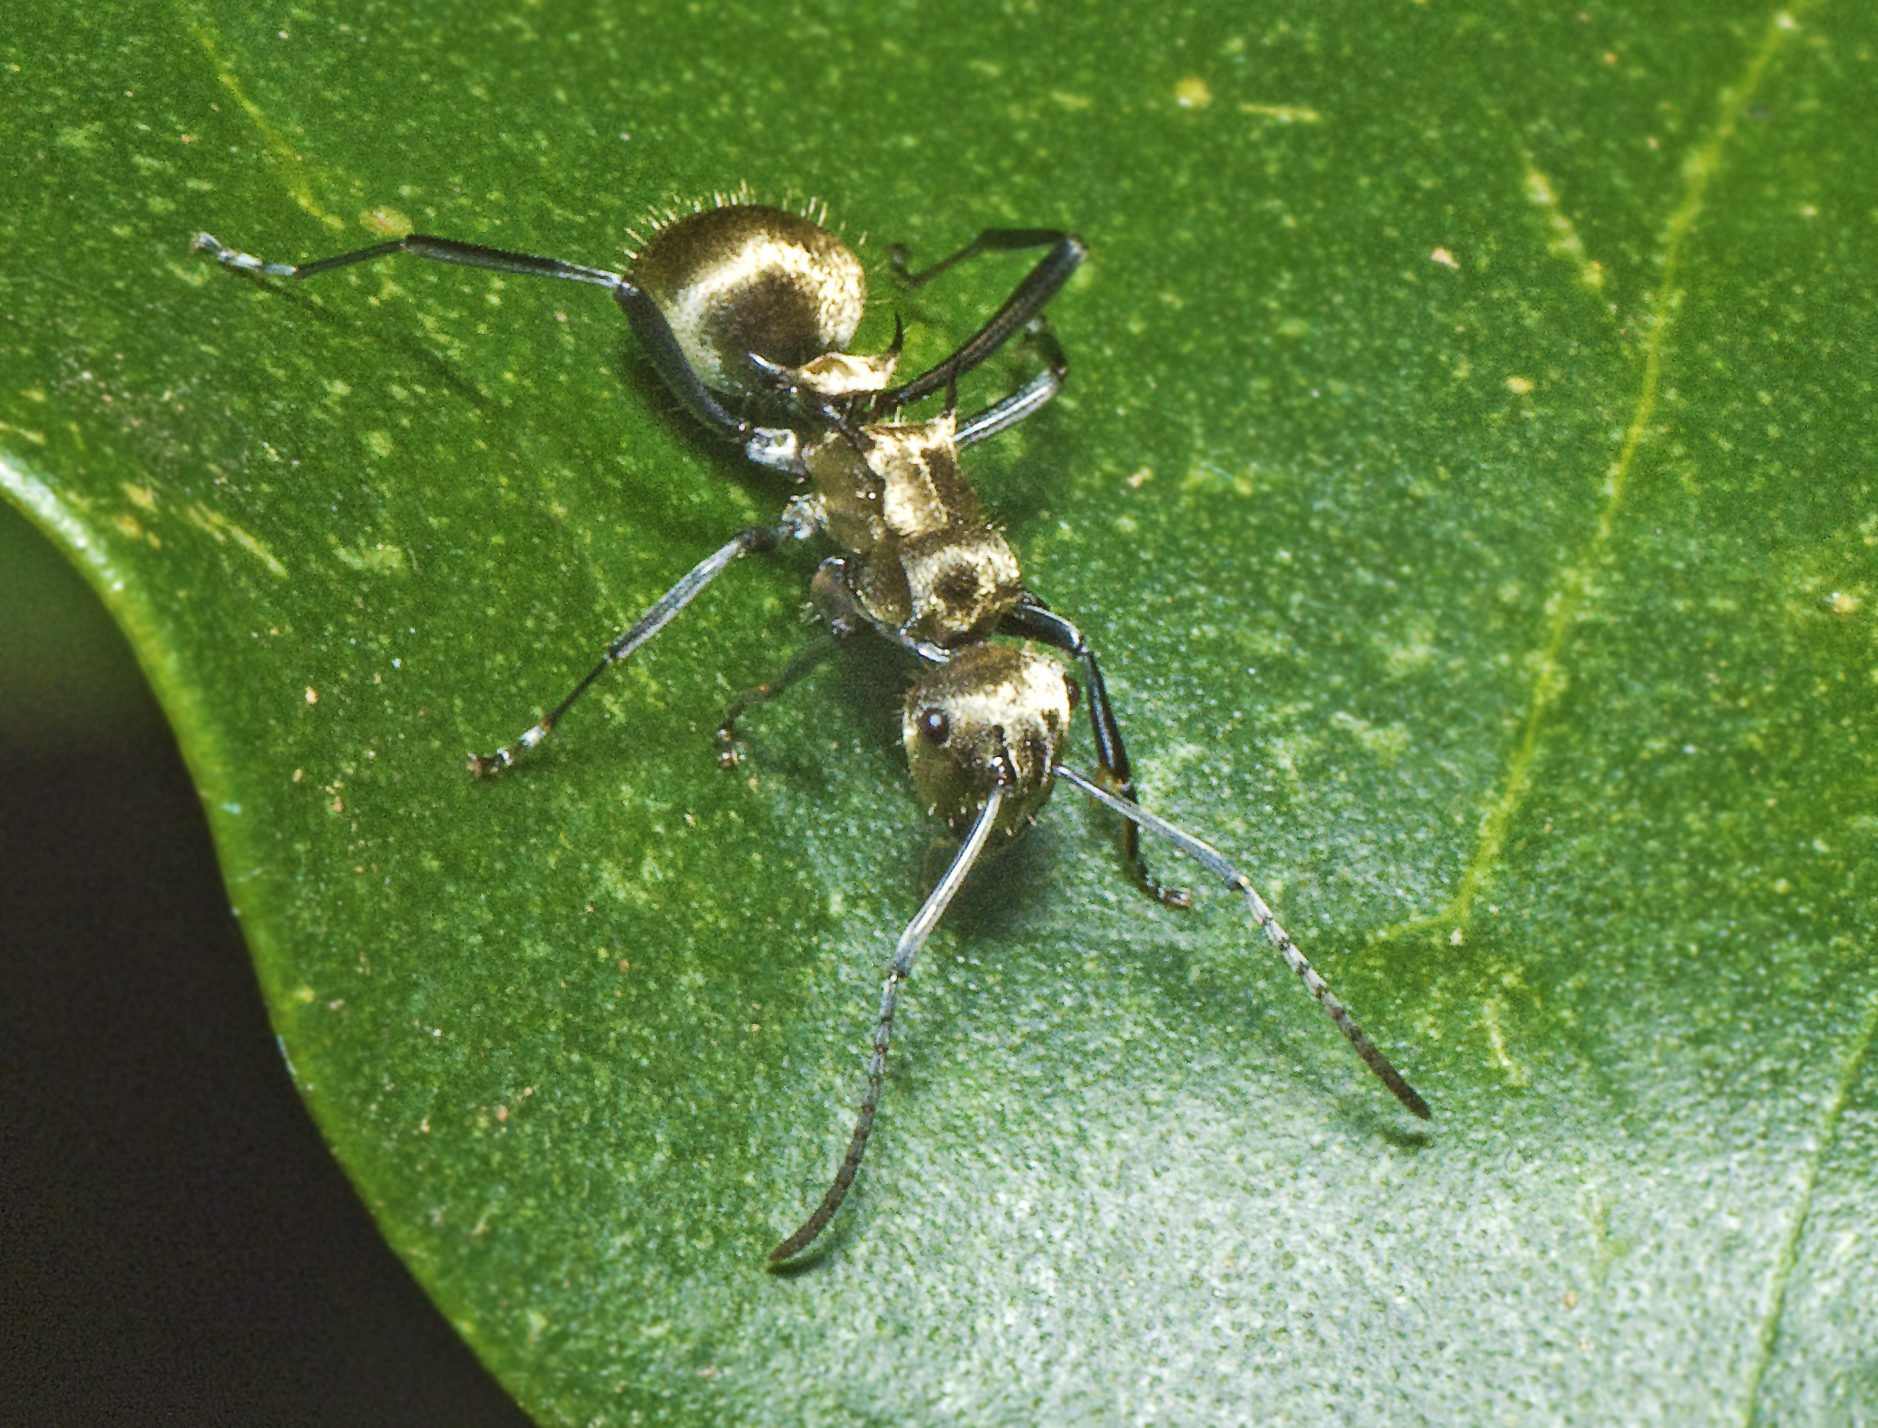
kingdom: Animalia
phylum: Arthropoda
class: Insecta
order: Hymenoptera
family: Formicidae
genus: Polyrhachis
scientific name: Polyrhachis cupreata
